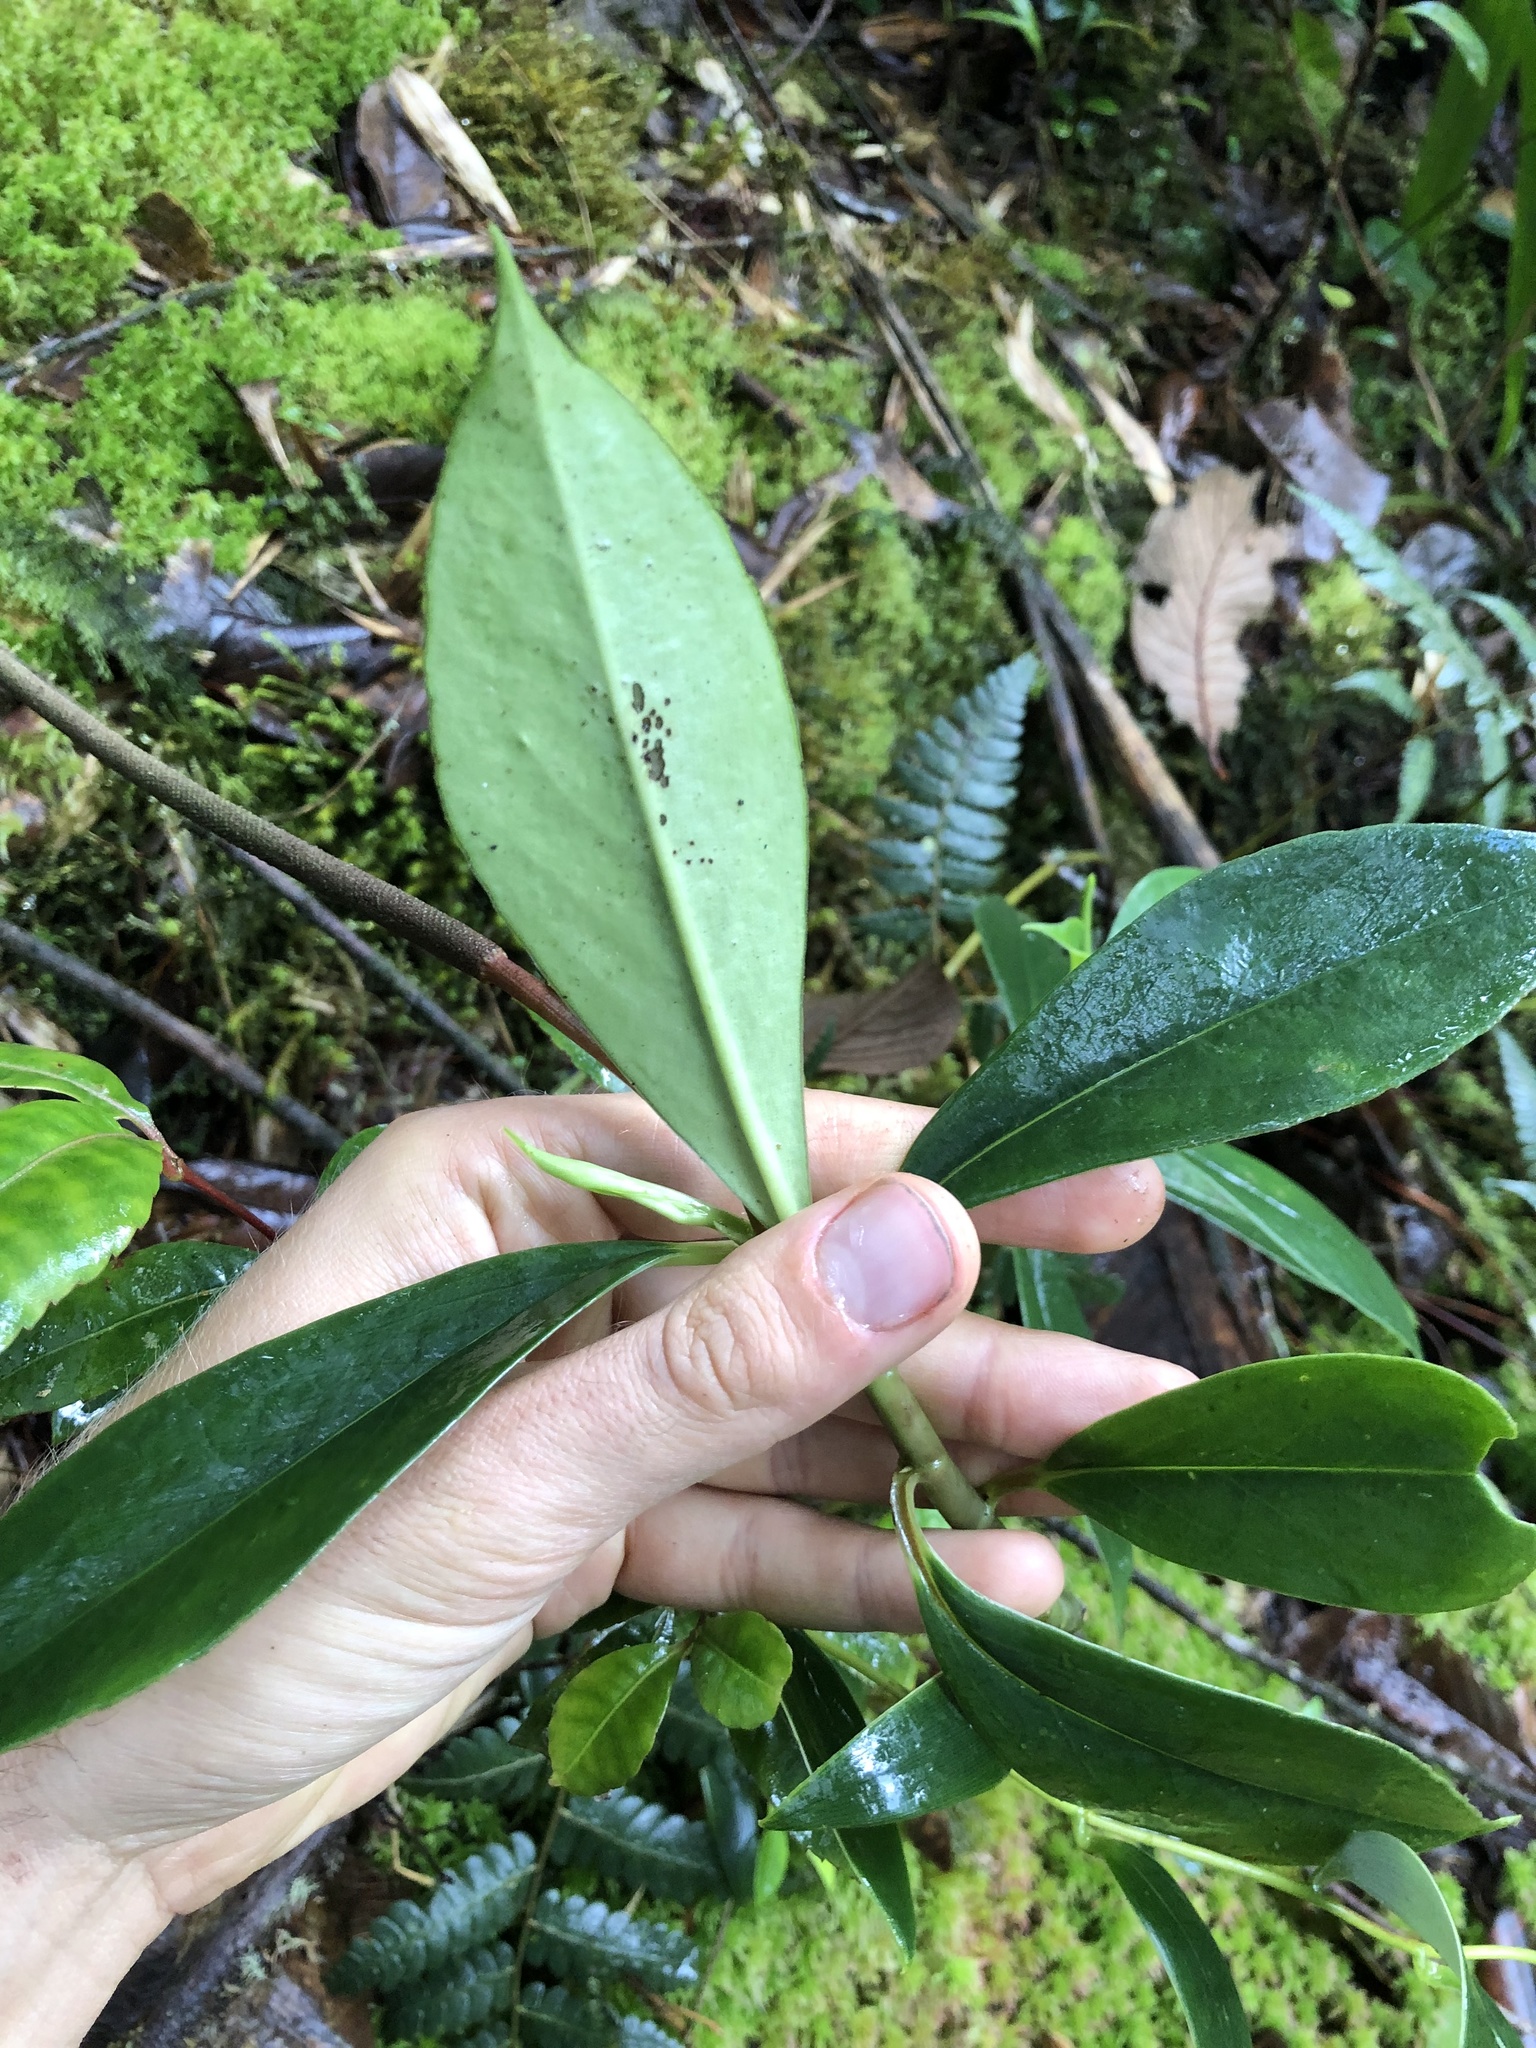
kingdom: Plantae
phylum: Tracheophyta
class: Magnoliopsida
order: Piperales
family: Piperaceae
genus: Peperomia
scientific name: Peperomia acuminata
